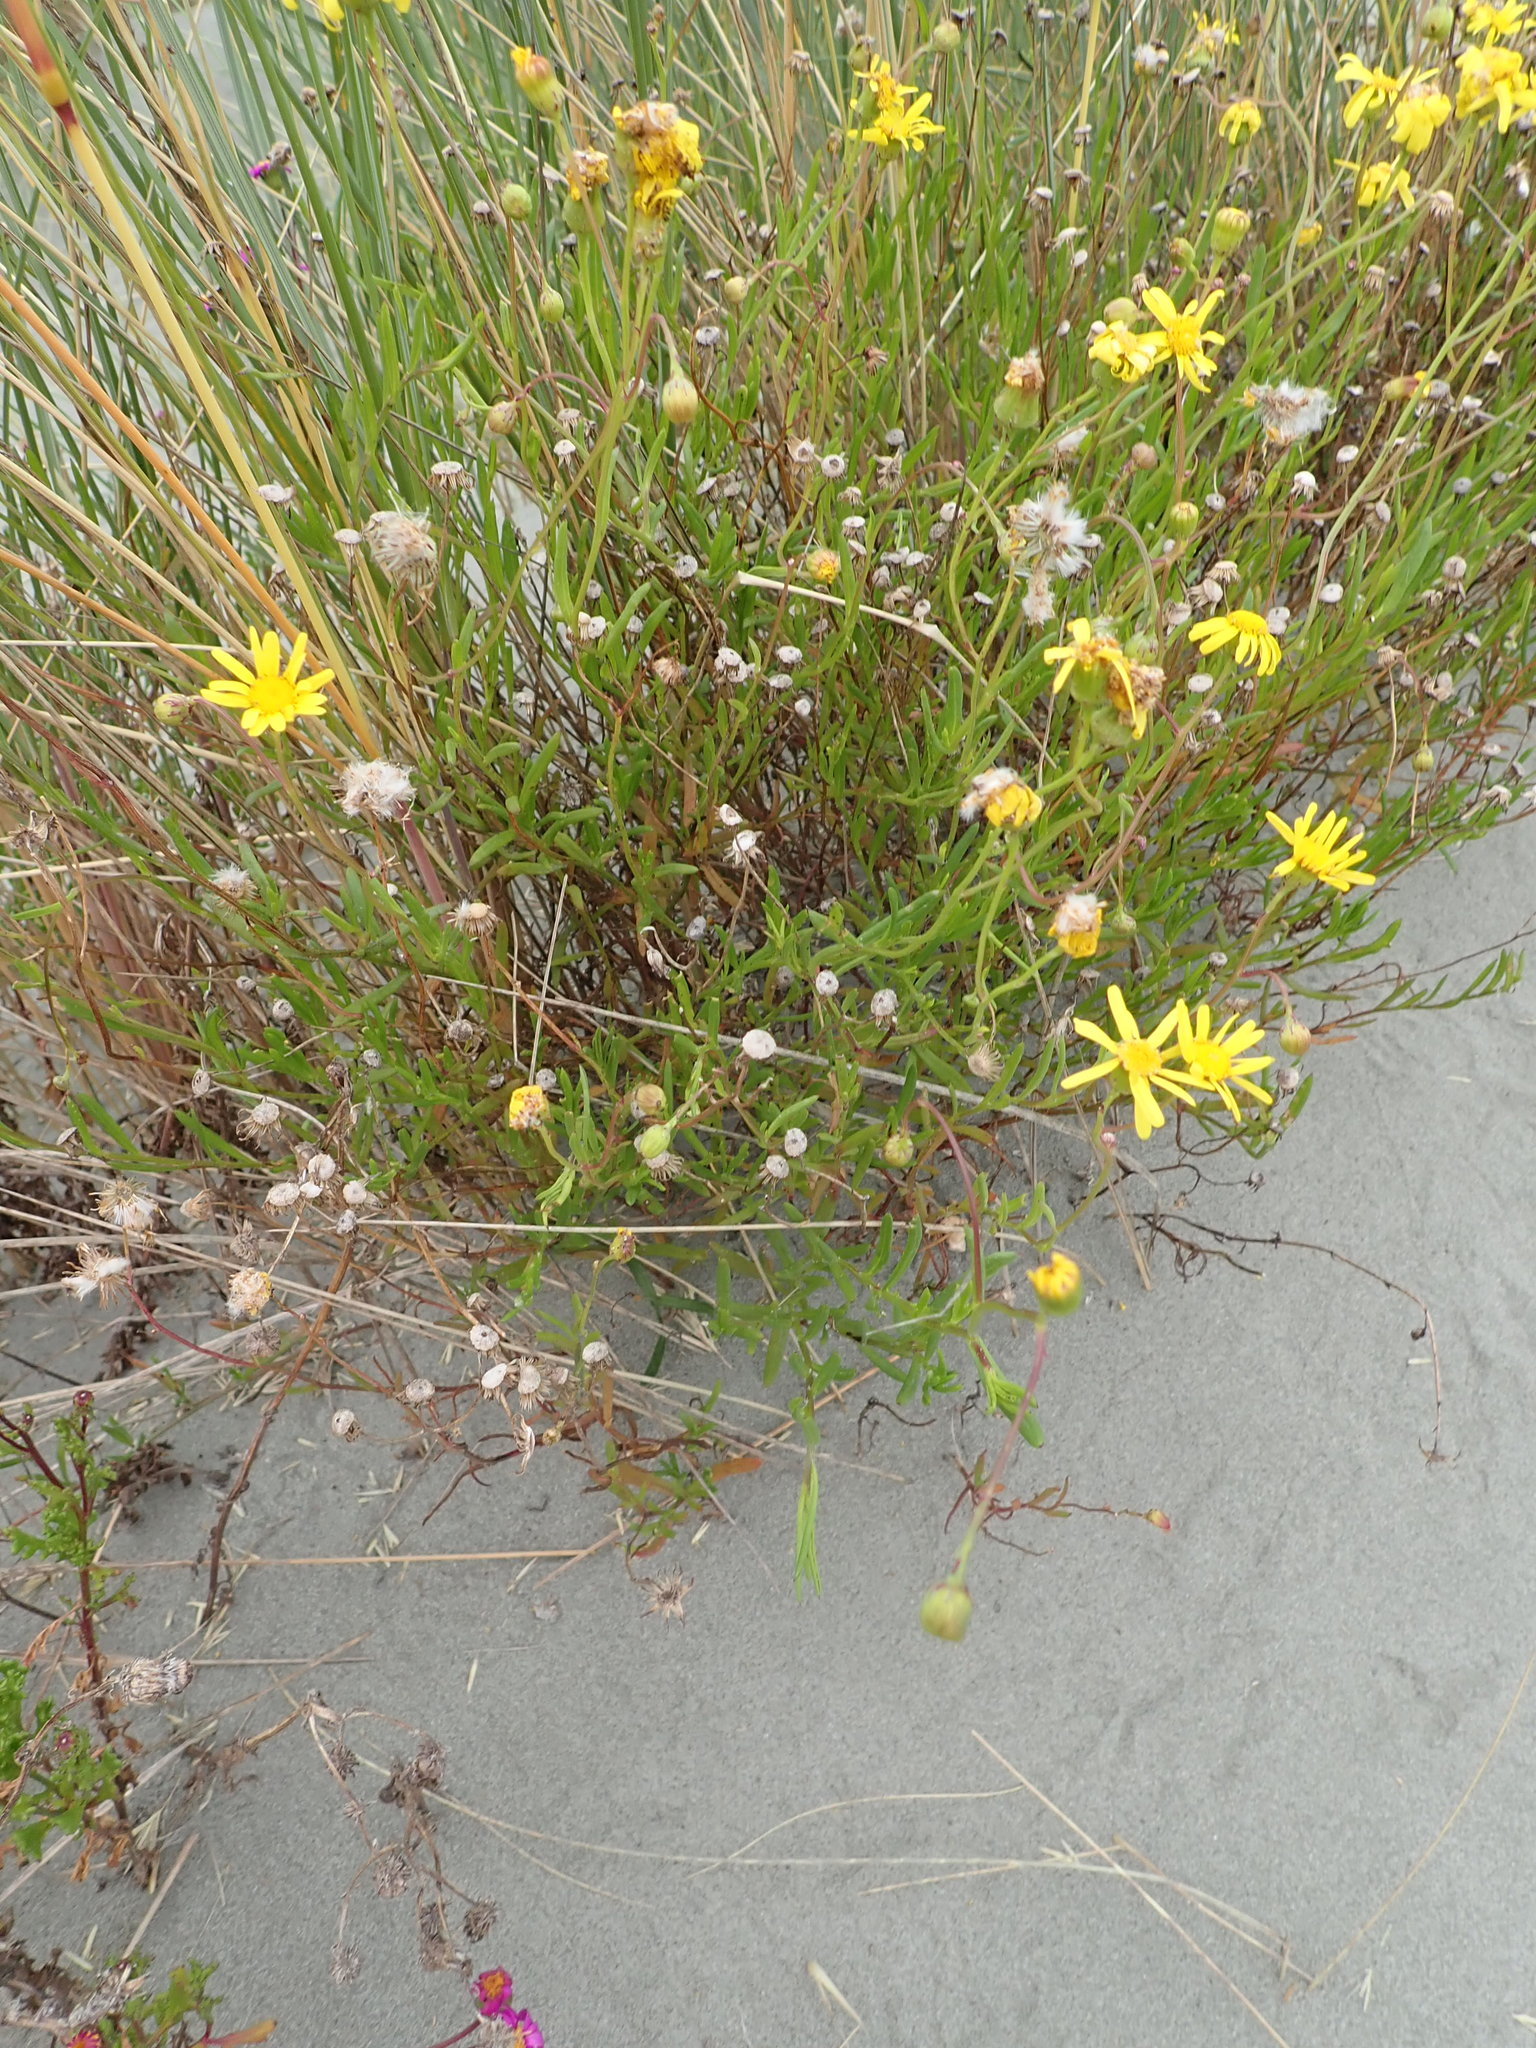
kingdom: Plantae
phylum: Tracheophyta
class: Magnoliopsida
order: Asterales
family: Asteraceae
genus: Senecio
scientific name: Senecio skirrhodon
